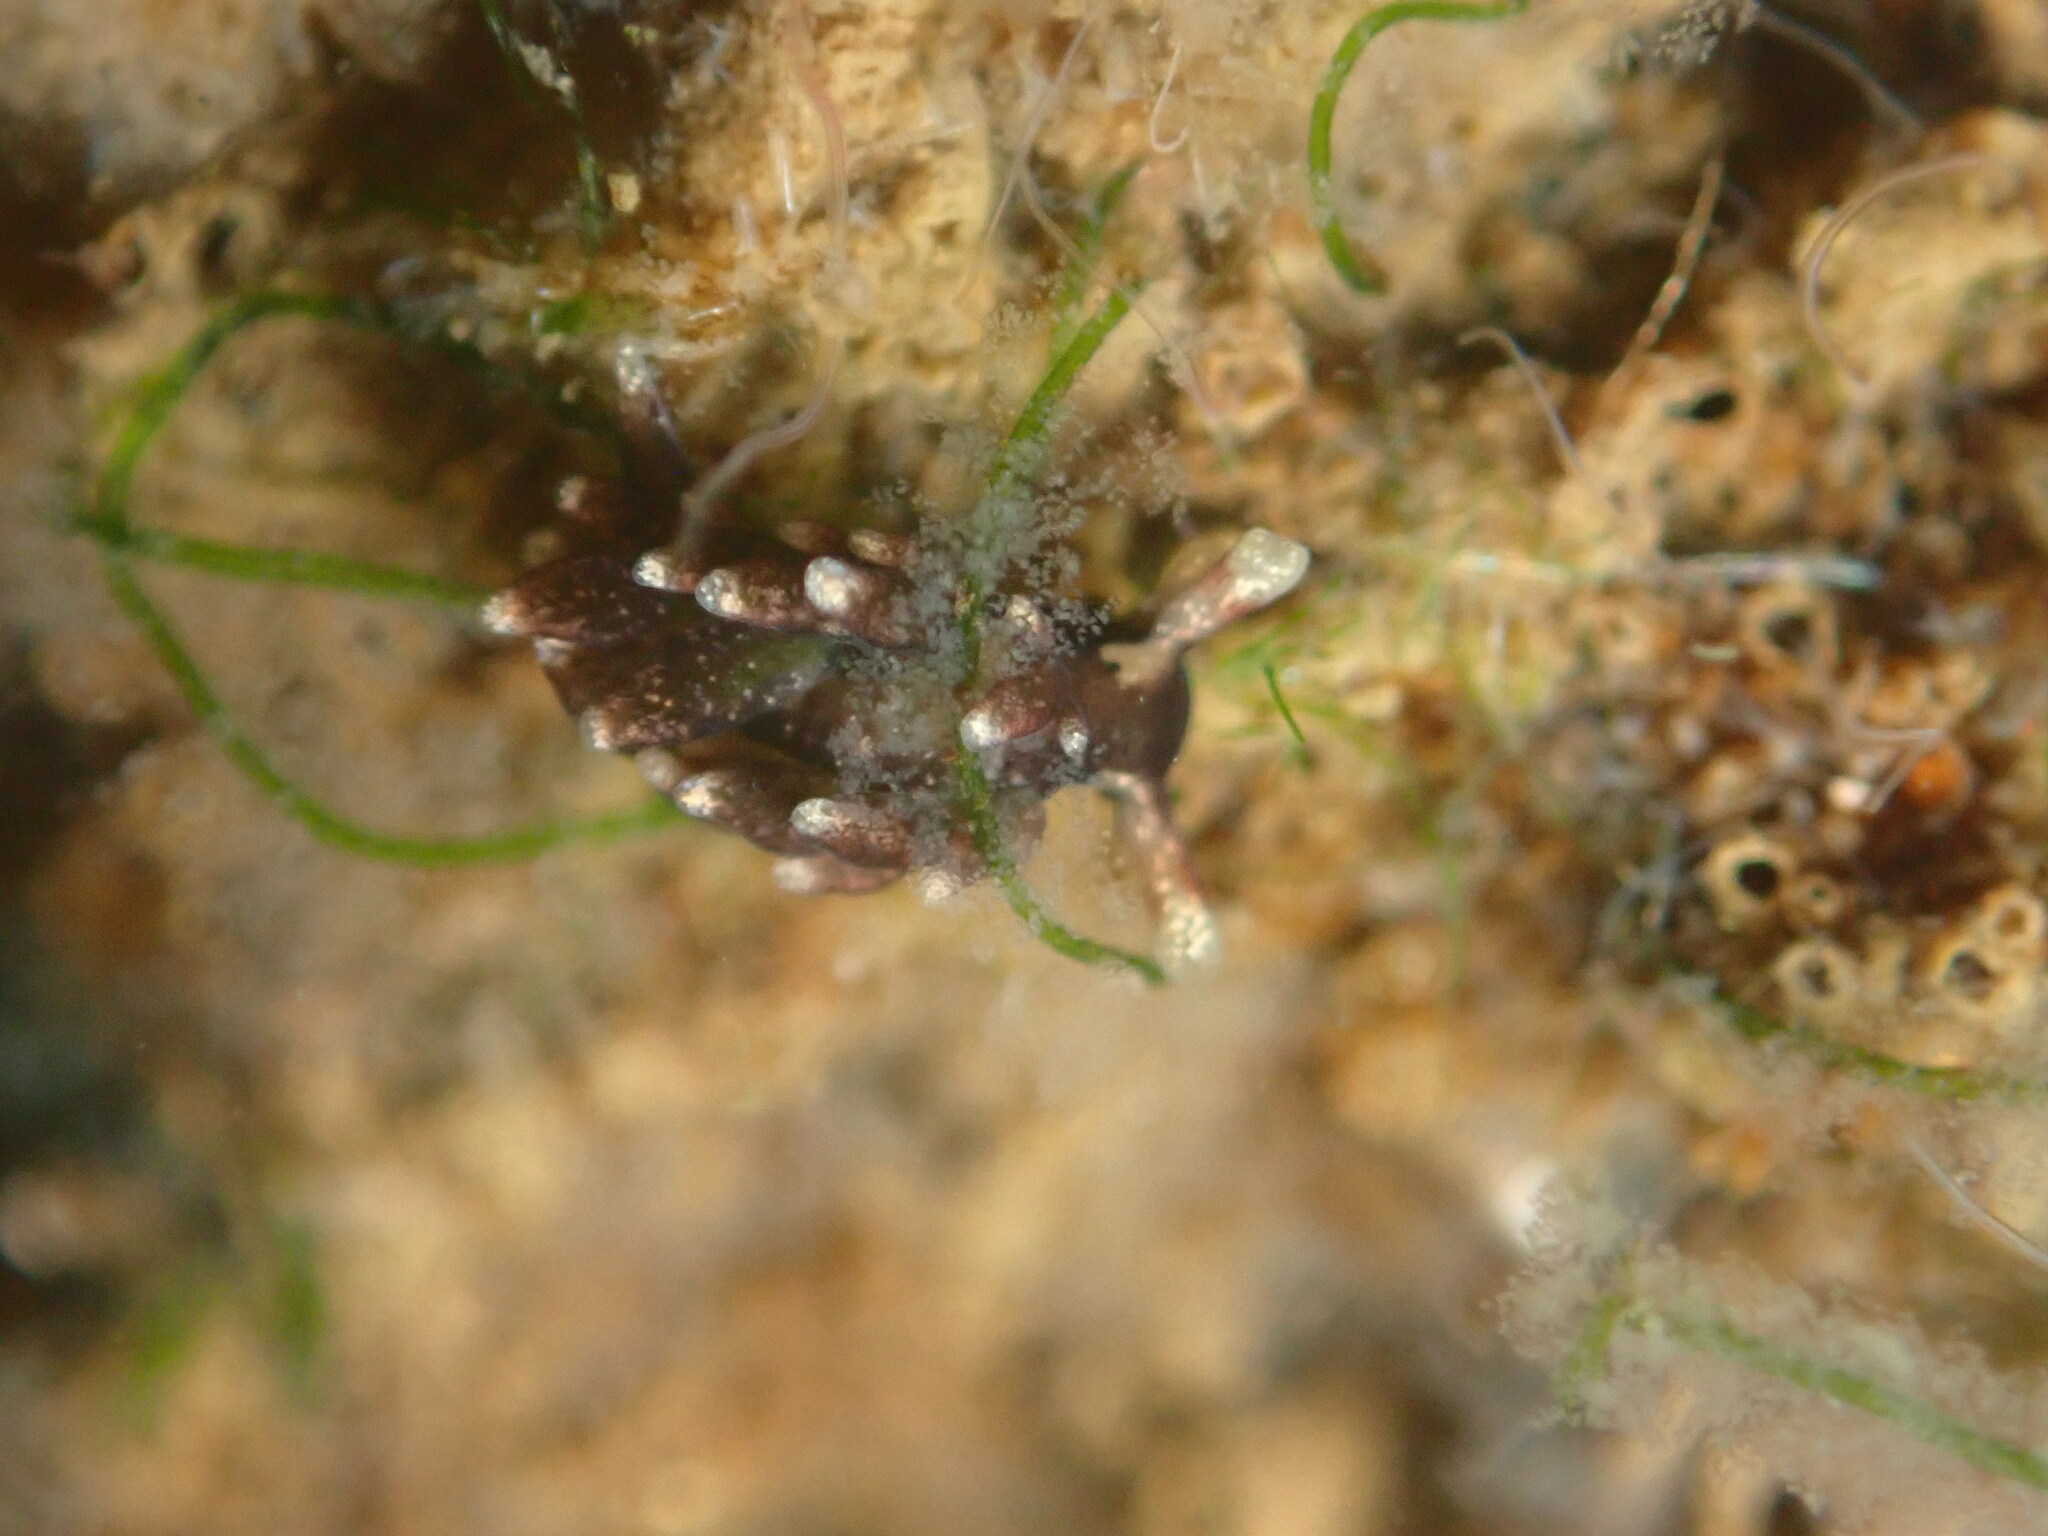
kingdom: Animalia
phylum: Mollusca
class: Gastropoda
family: Hermaeidae
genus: Aplysiopsis
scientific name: Aplysiopsis enteromorphae
